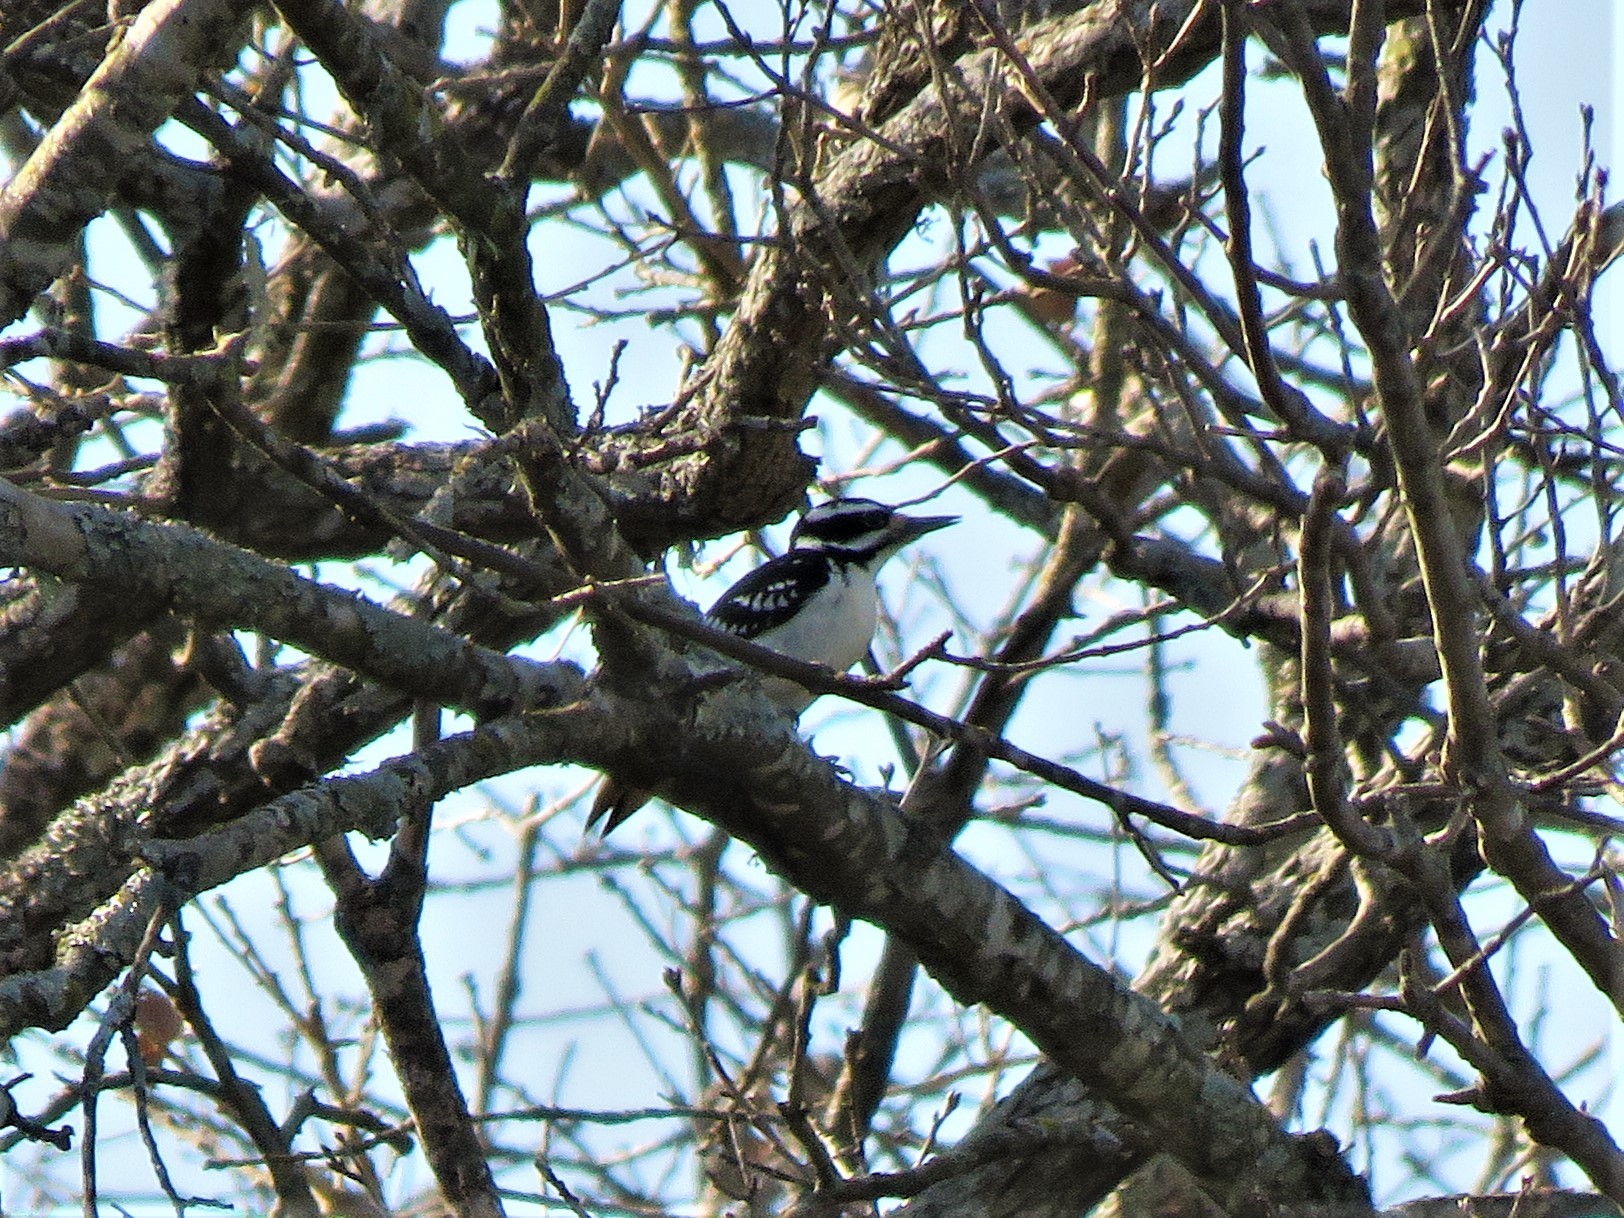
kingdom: Animalia
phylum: Chordata
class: Aves
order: Piciformes
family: Picidae
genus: Leuconotopicus
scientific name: Leuconotopicus villosus
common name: Hairy woodpecker
